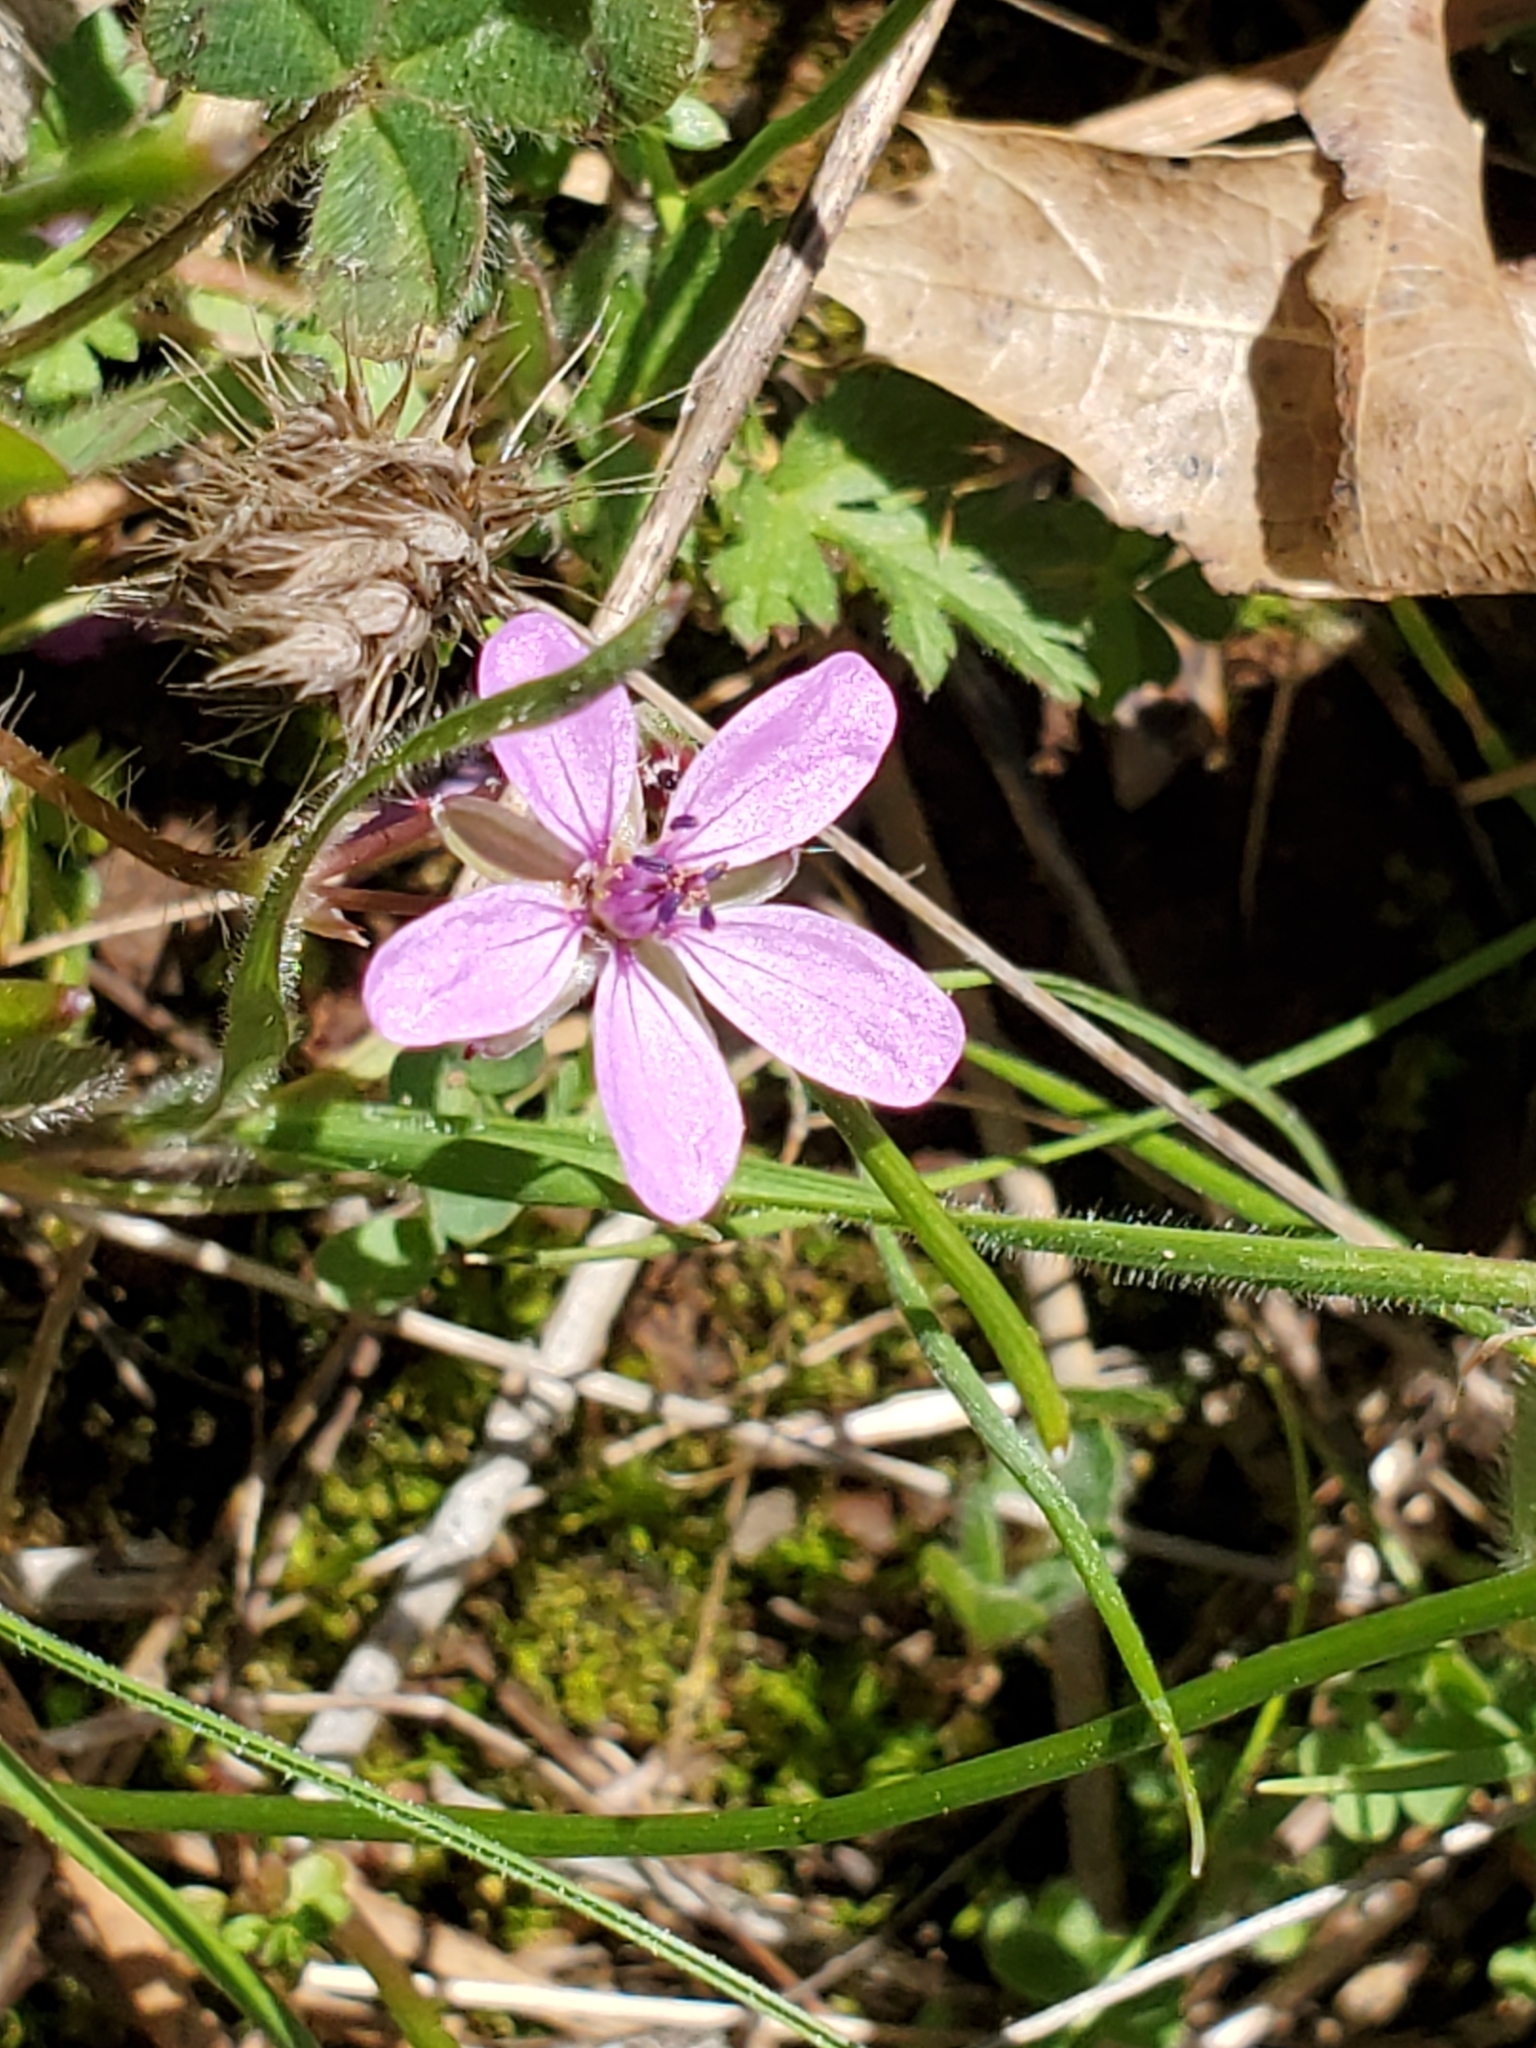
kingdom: Plantae
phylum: Tracheophyta
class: Magnoliopsida
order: Geraniales
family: Geraniaceae
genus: Erodium
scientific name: Erodium cicutarium
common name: Common stork's-bill
